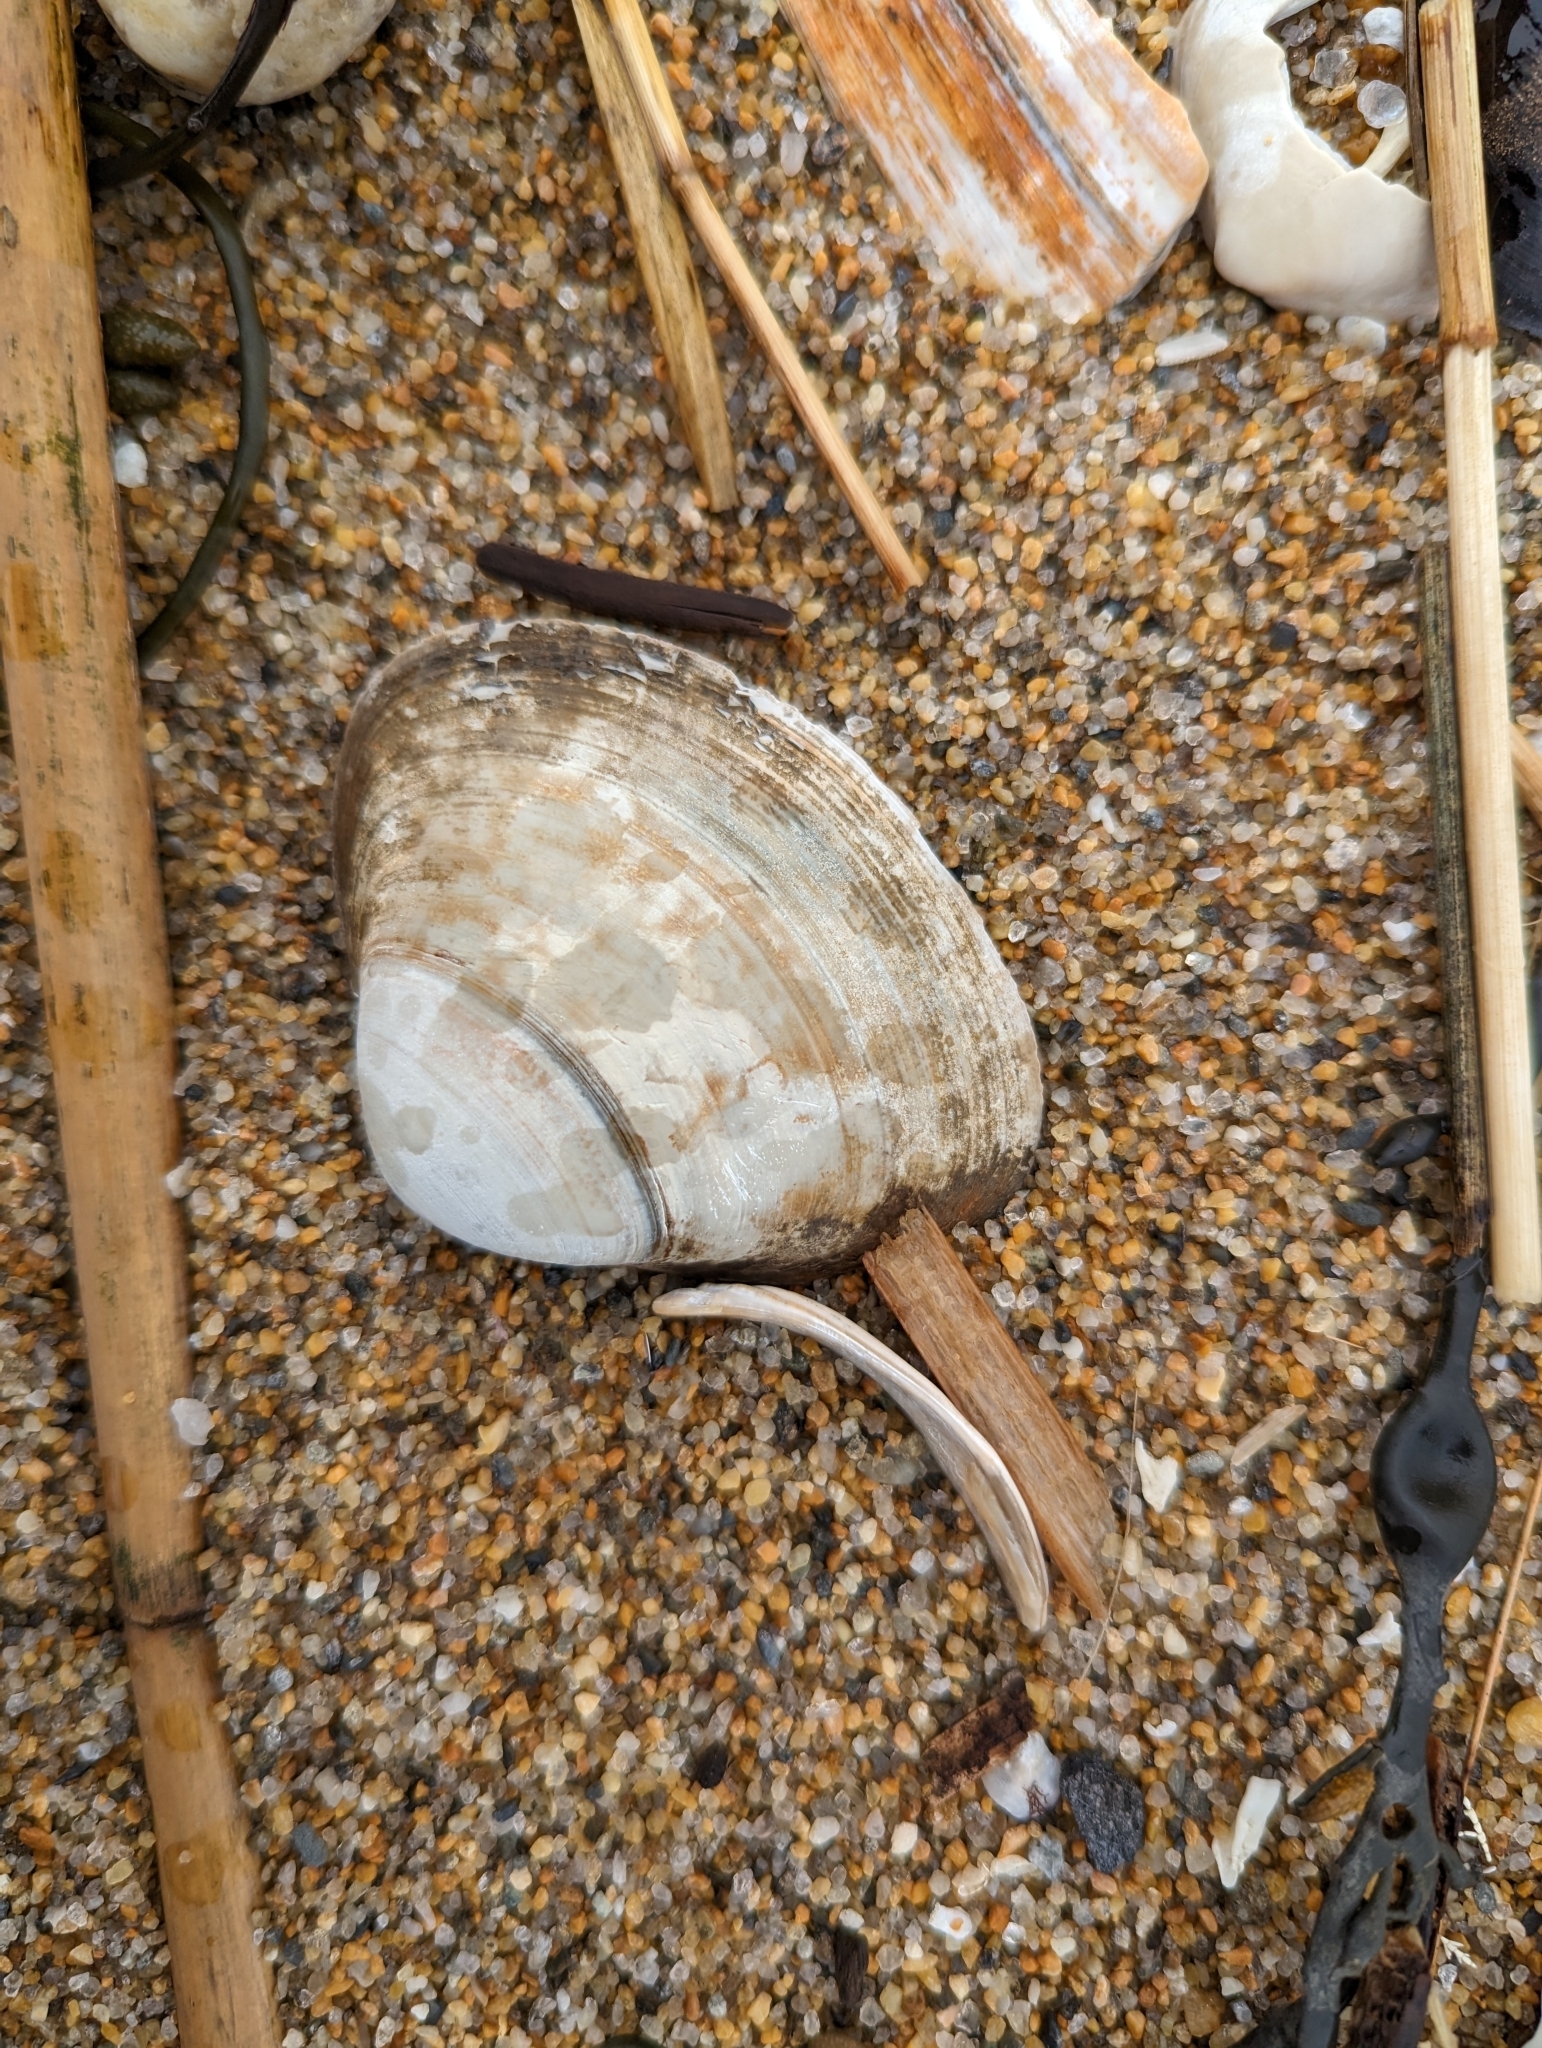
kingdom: Animalia
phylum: Mollusca
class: Bivalvia
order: Venerida
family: Mactridae
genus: Spisula
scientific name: Spisula solidissima
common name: Atlantic surf clam
